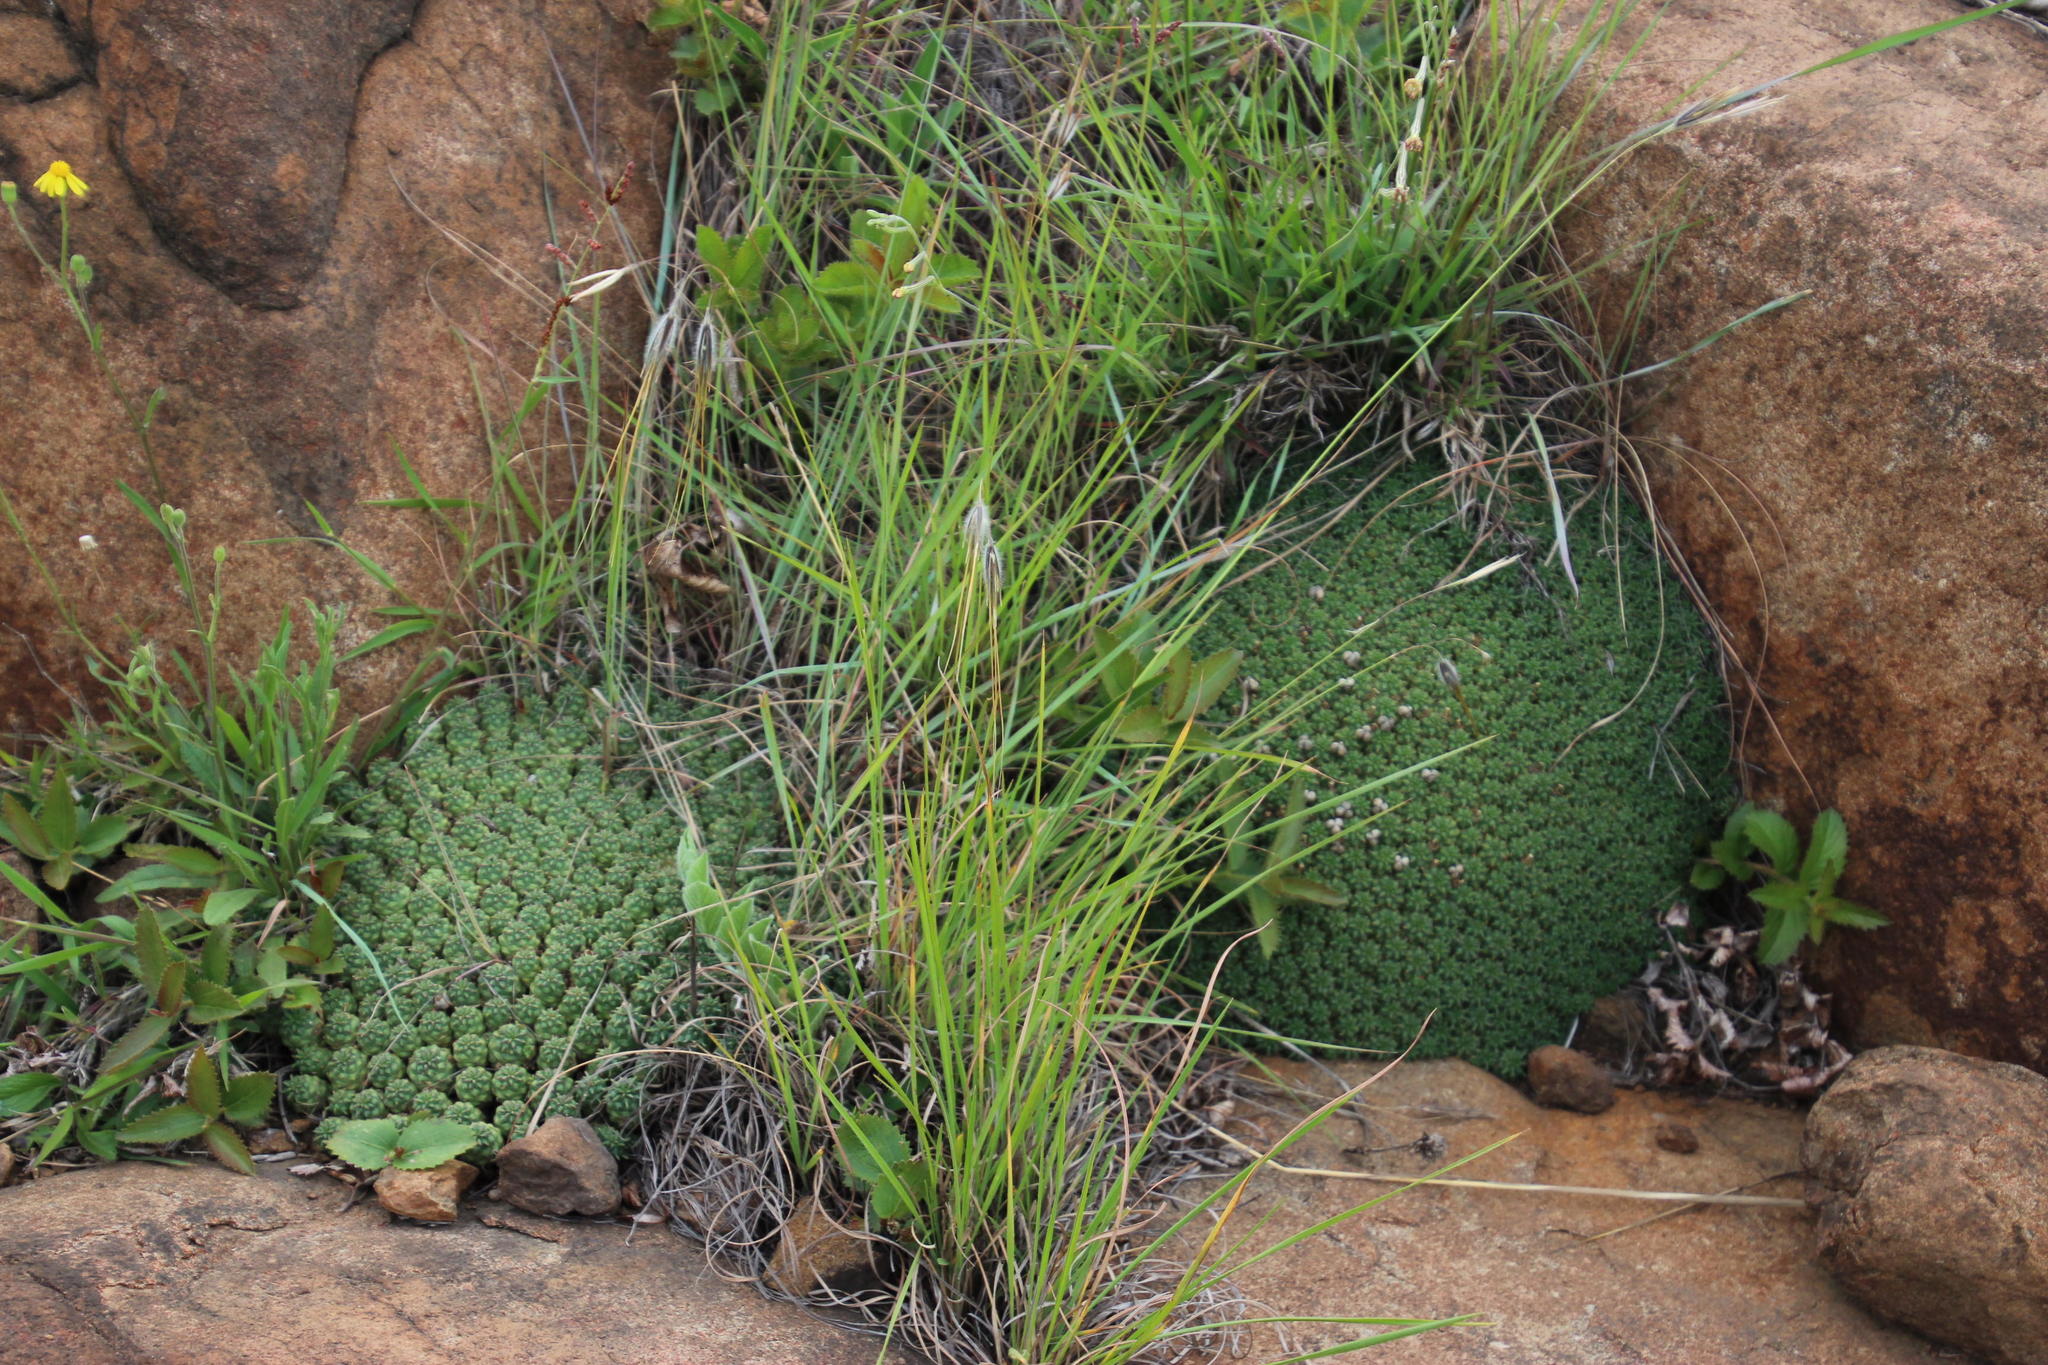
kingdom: Plantae
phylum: Tracheophyta
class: Magnoliopsida
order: Malpighiales
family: Euphorbiaceae
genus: Euphorbia
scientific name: Euphorbia clavarioides
